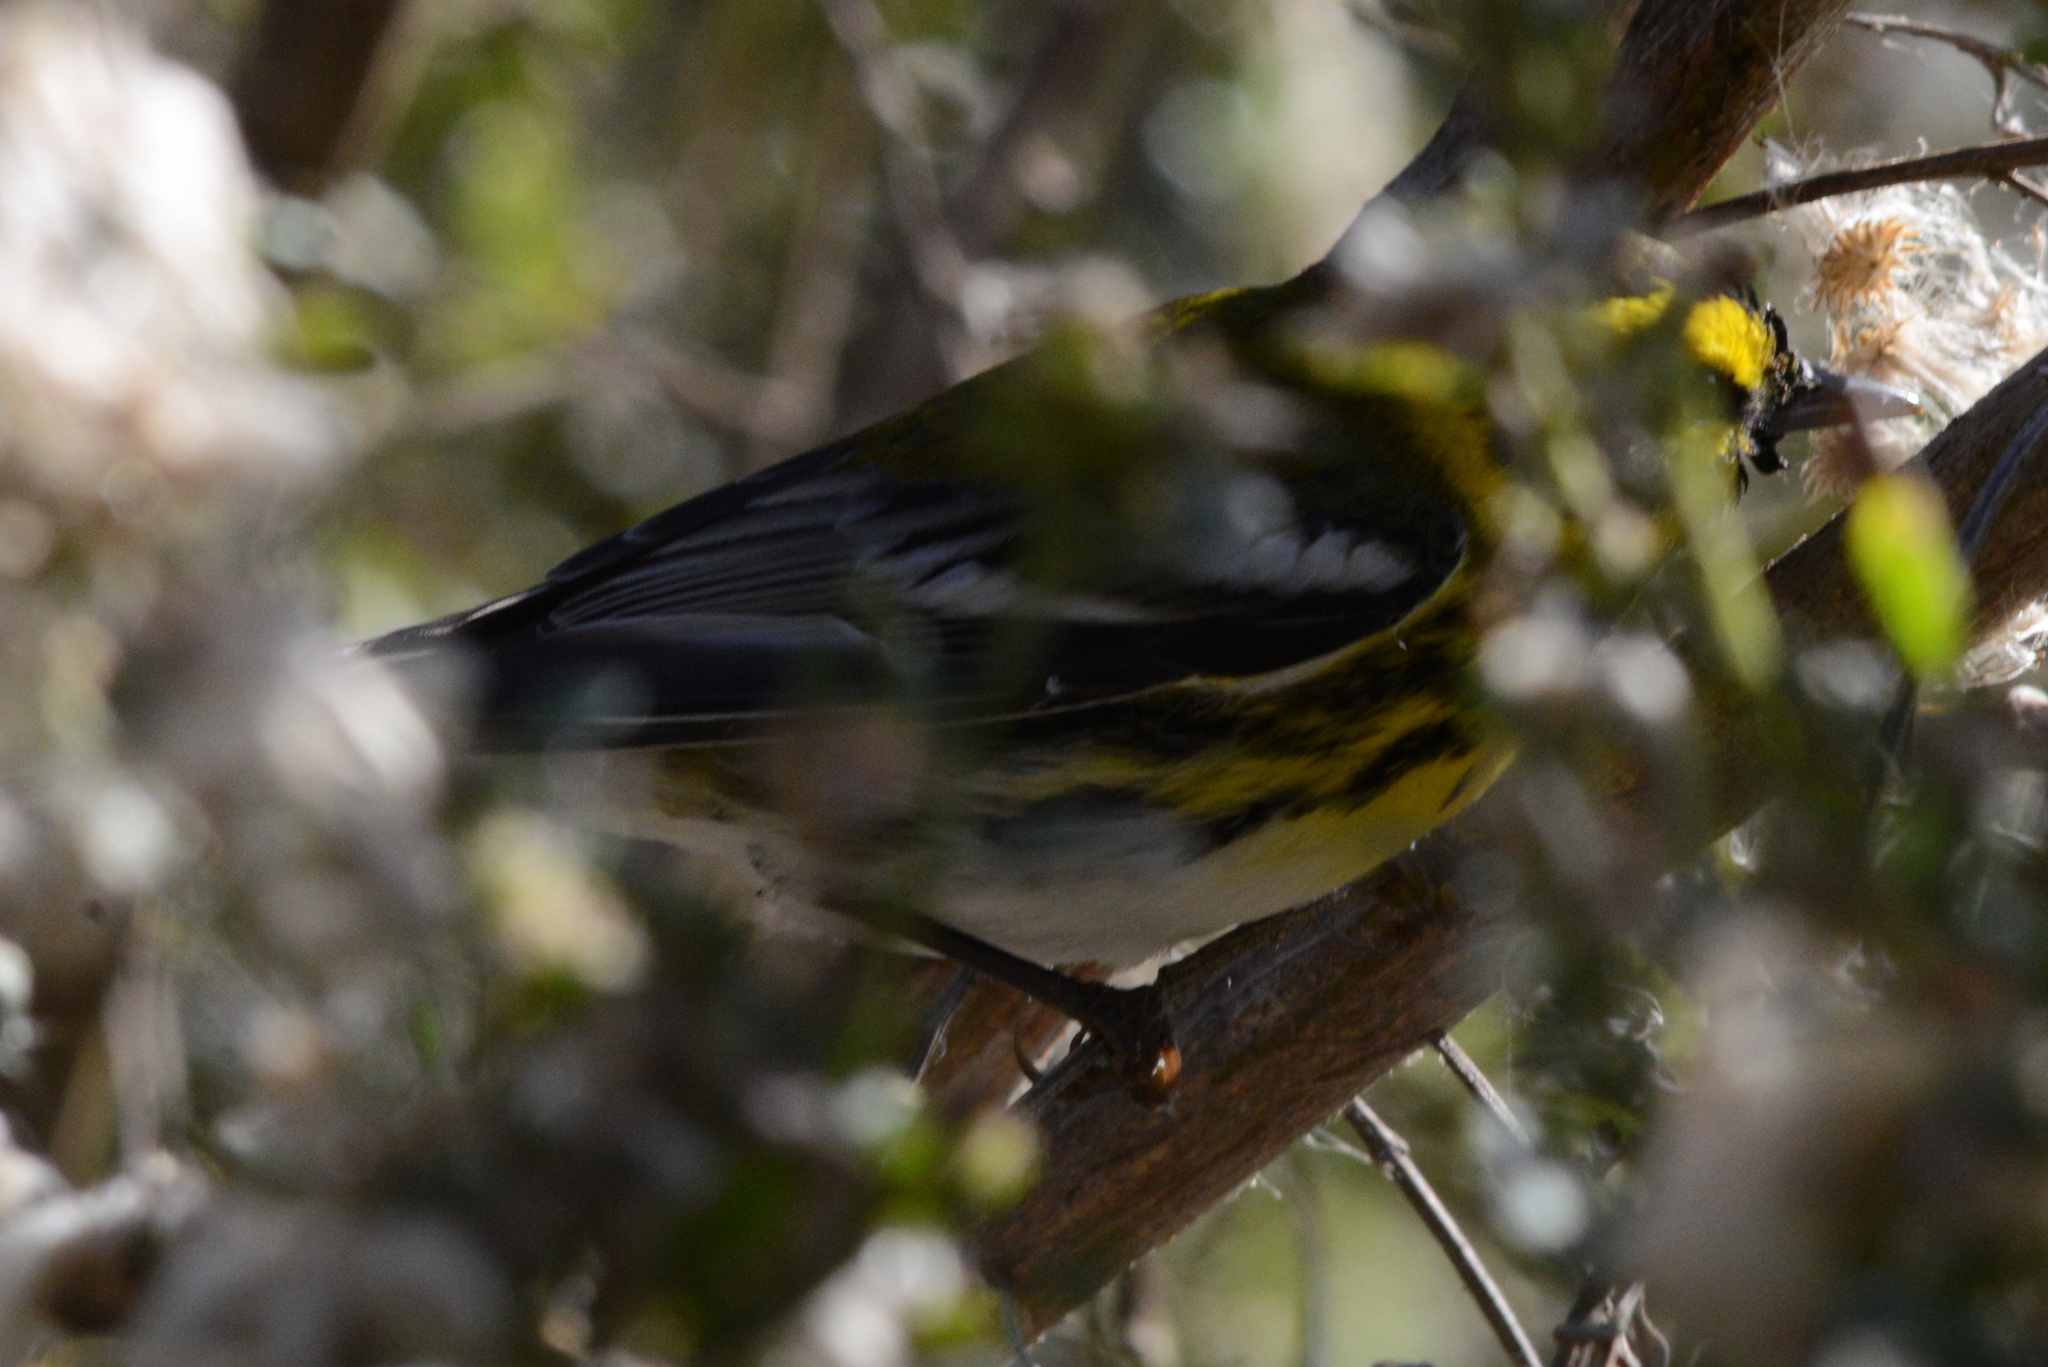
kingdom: Animalia
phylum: Chordata
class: Aves
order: Passeriformes
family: Parulidae
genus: Setophaga
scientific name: Setophaga townsendi
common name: Townsend's warbler
